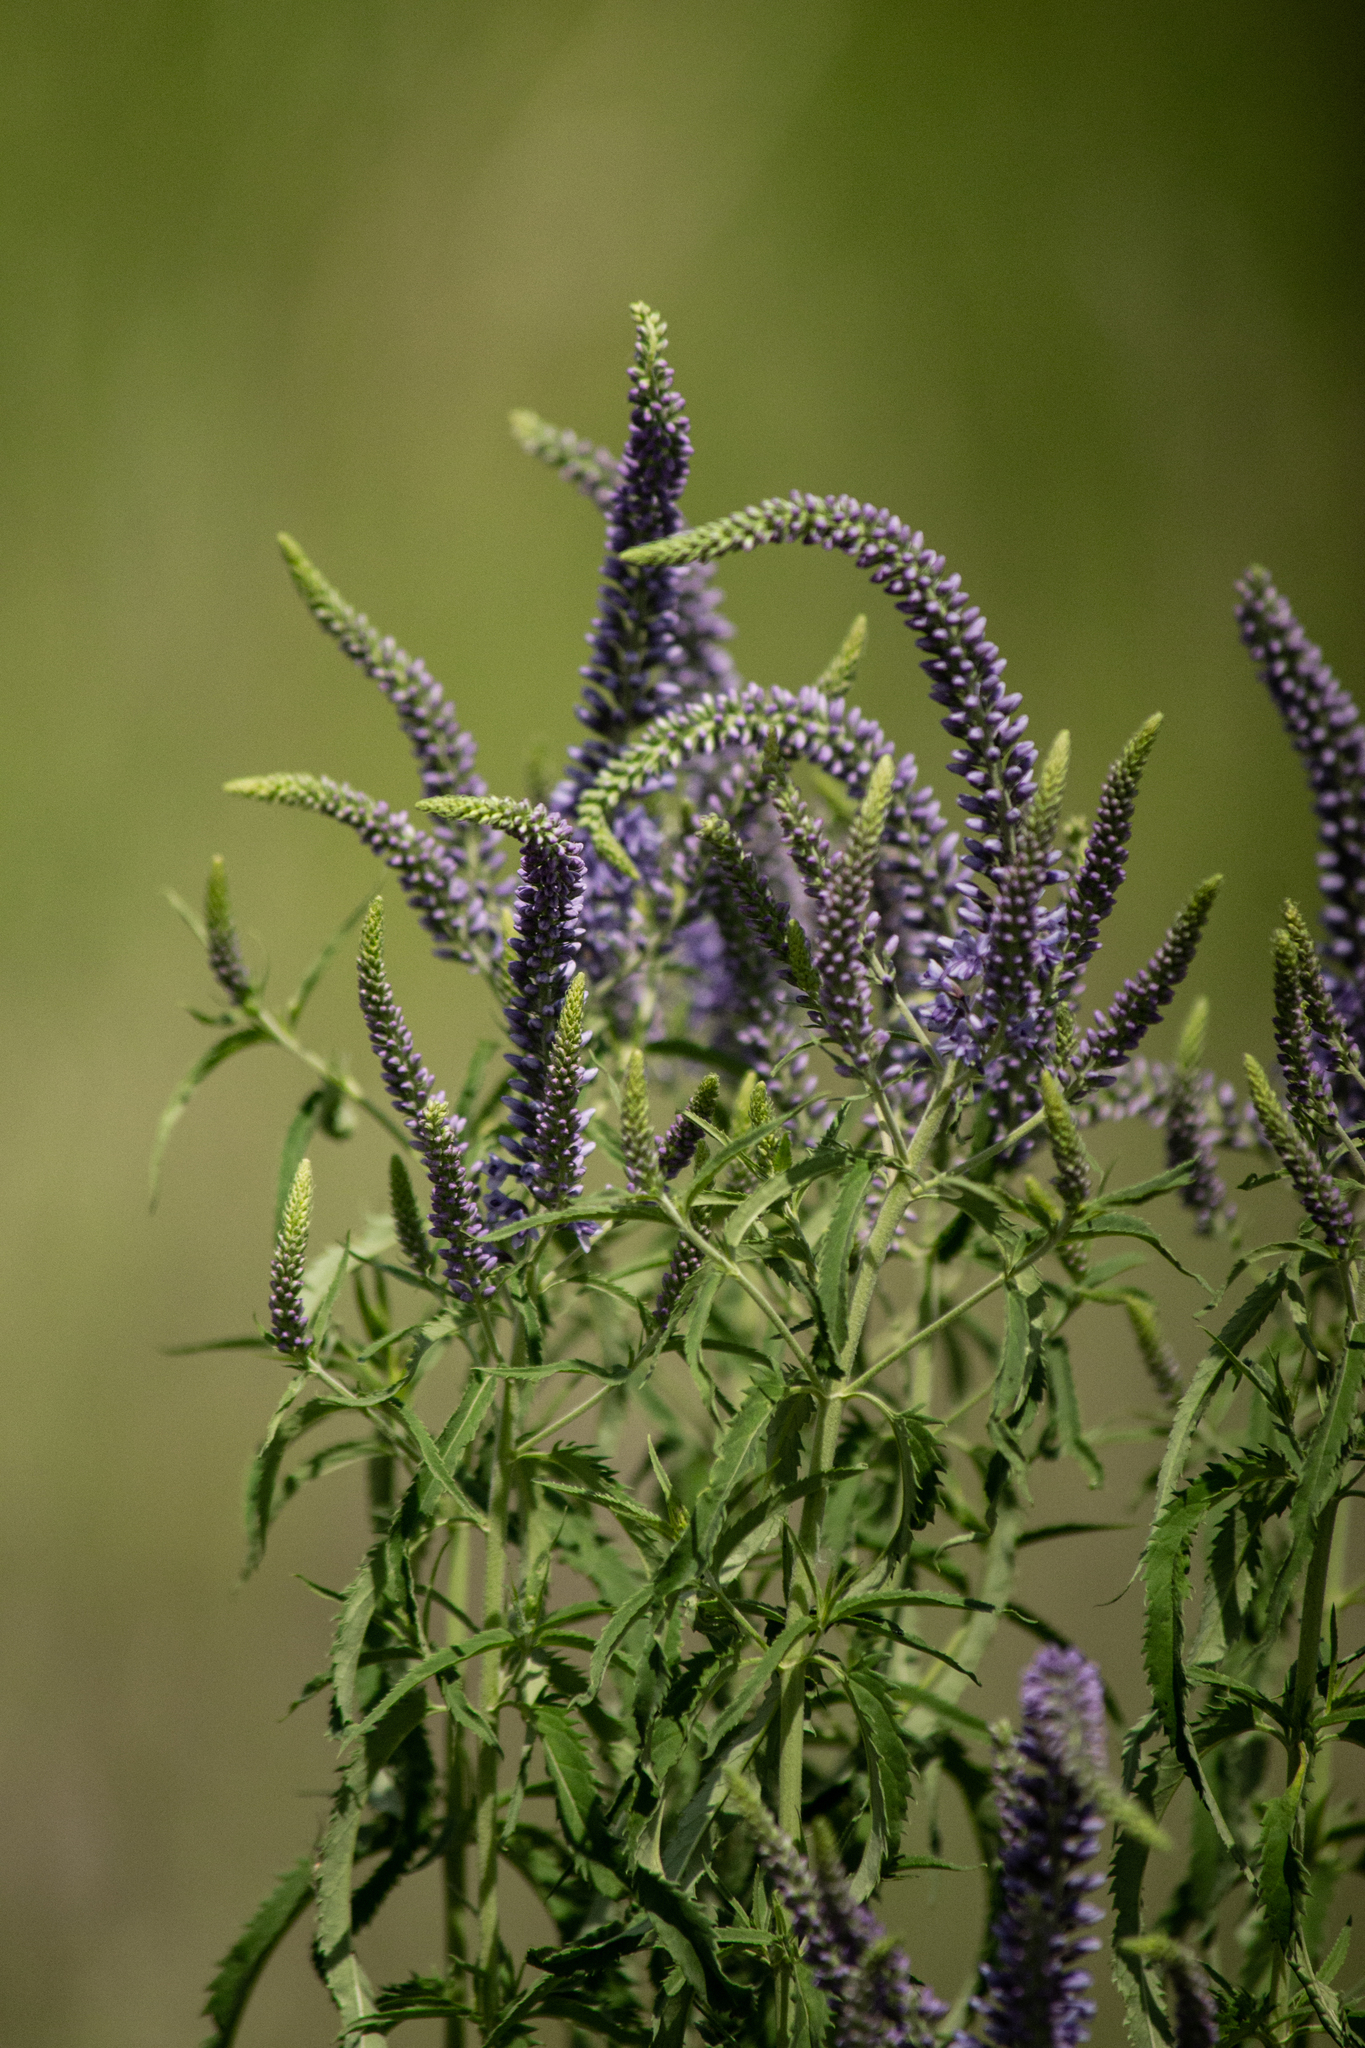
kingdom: Plantae
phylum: Tracheophyta
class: Magnoliopsida
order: Lamiales
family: Plantaginaceae
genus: Veronica
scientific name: Veronica longifolia
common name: Garden speedwell
